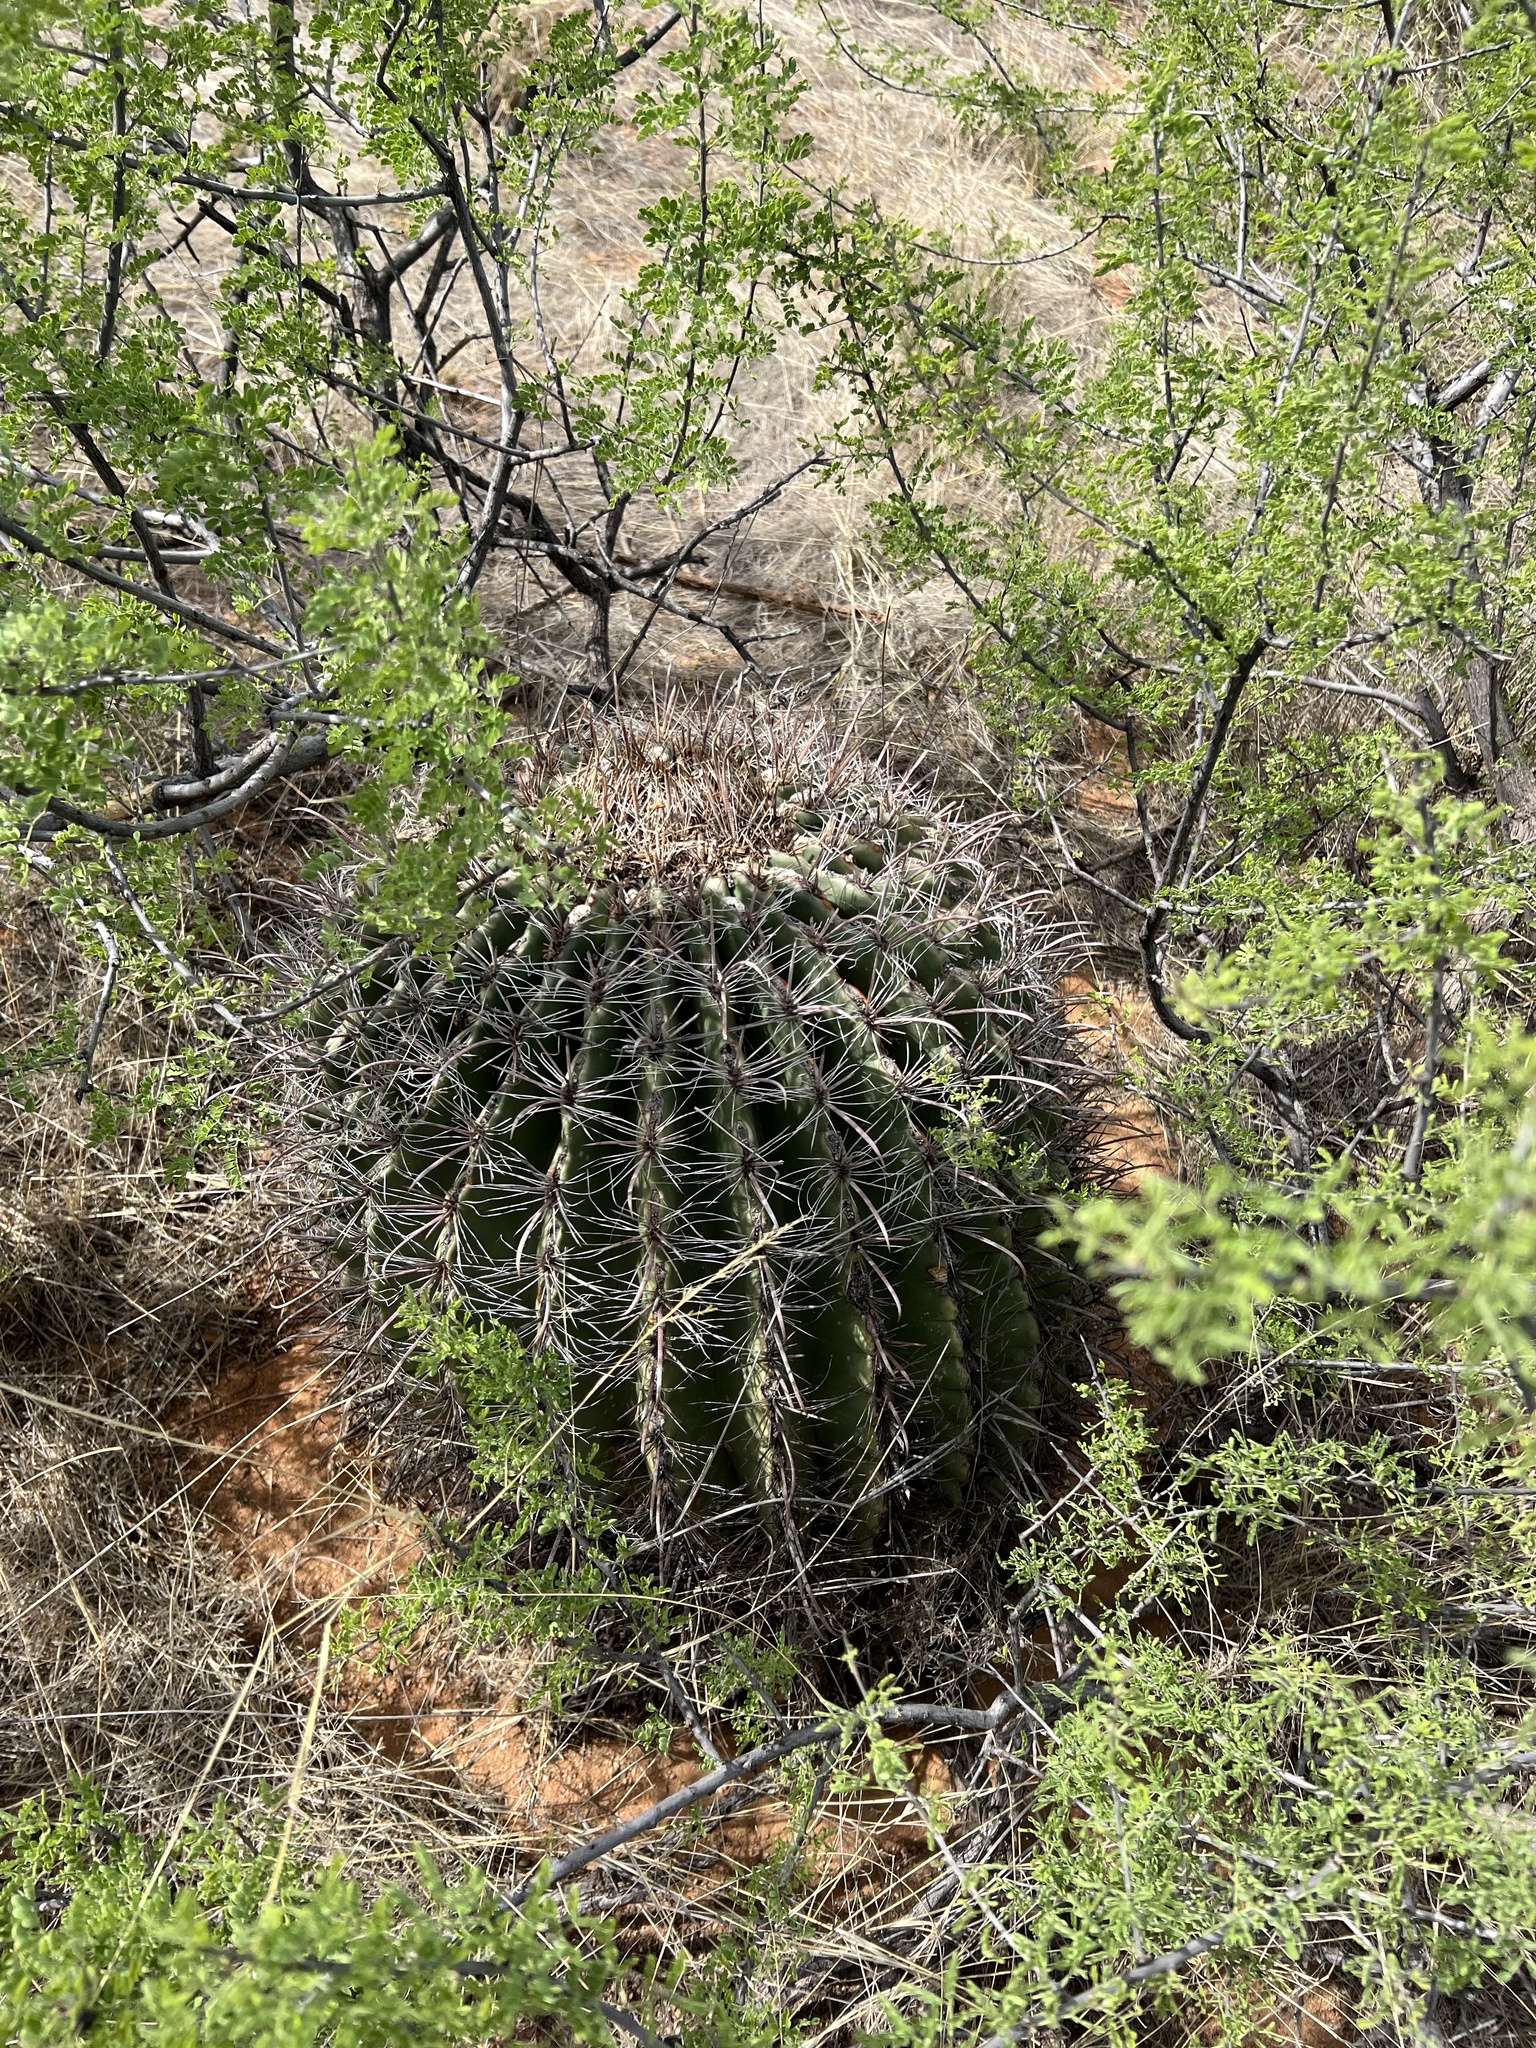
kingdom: Plantae
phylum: Tracheophyta
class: Magnoliopsida
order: Caryophyllales
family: Cactaceae
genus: Ferocactus
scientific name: Ferocactus wislizeni
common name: Candy barrel cactus
